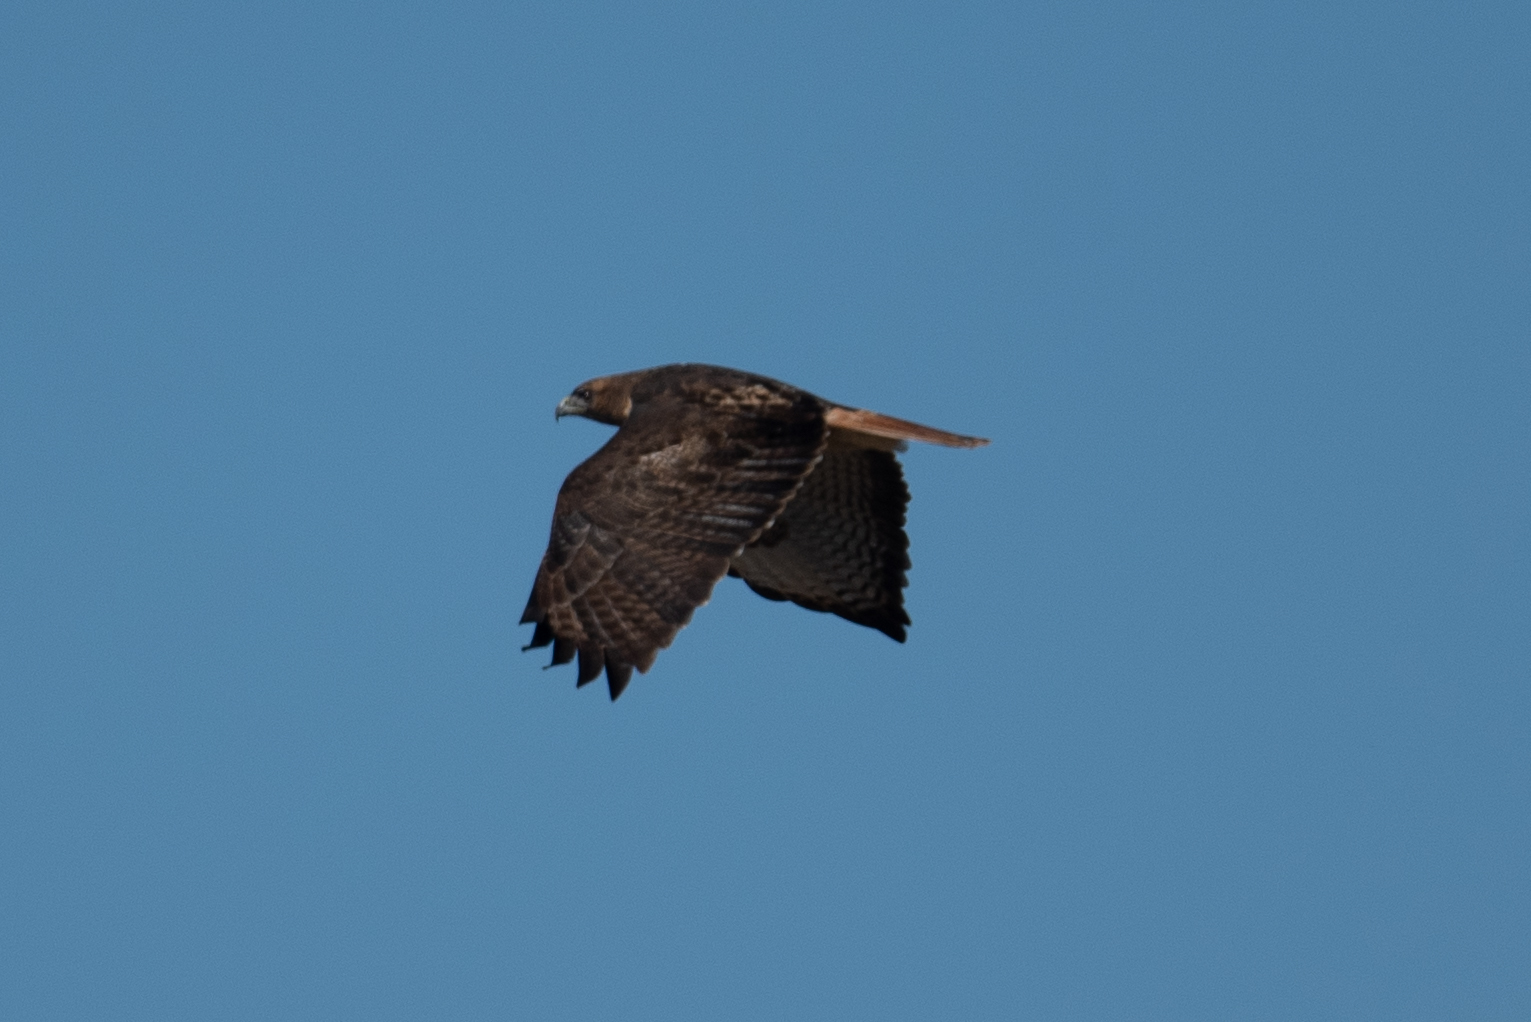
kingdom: Animalia
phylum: Chordata
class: Aves
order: Accipitriformes
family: Accipitridae
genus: Buteo
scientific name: Buteo jamaicensis
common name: Red-tailed hawk
